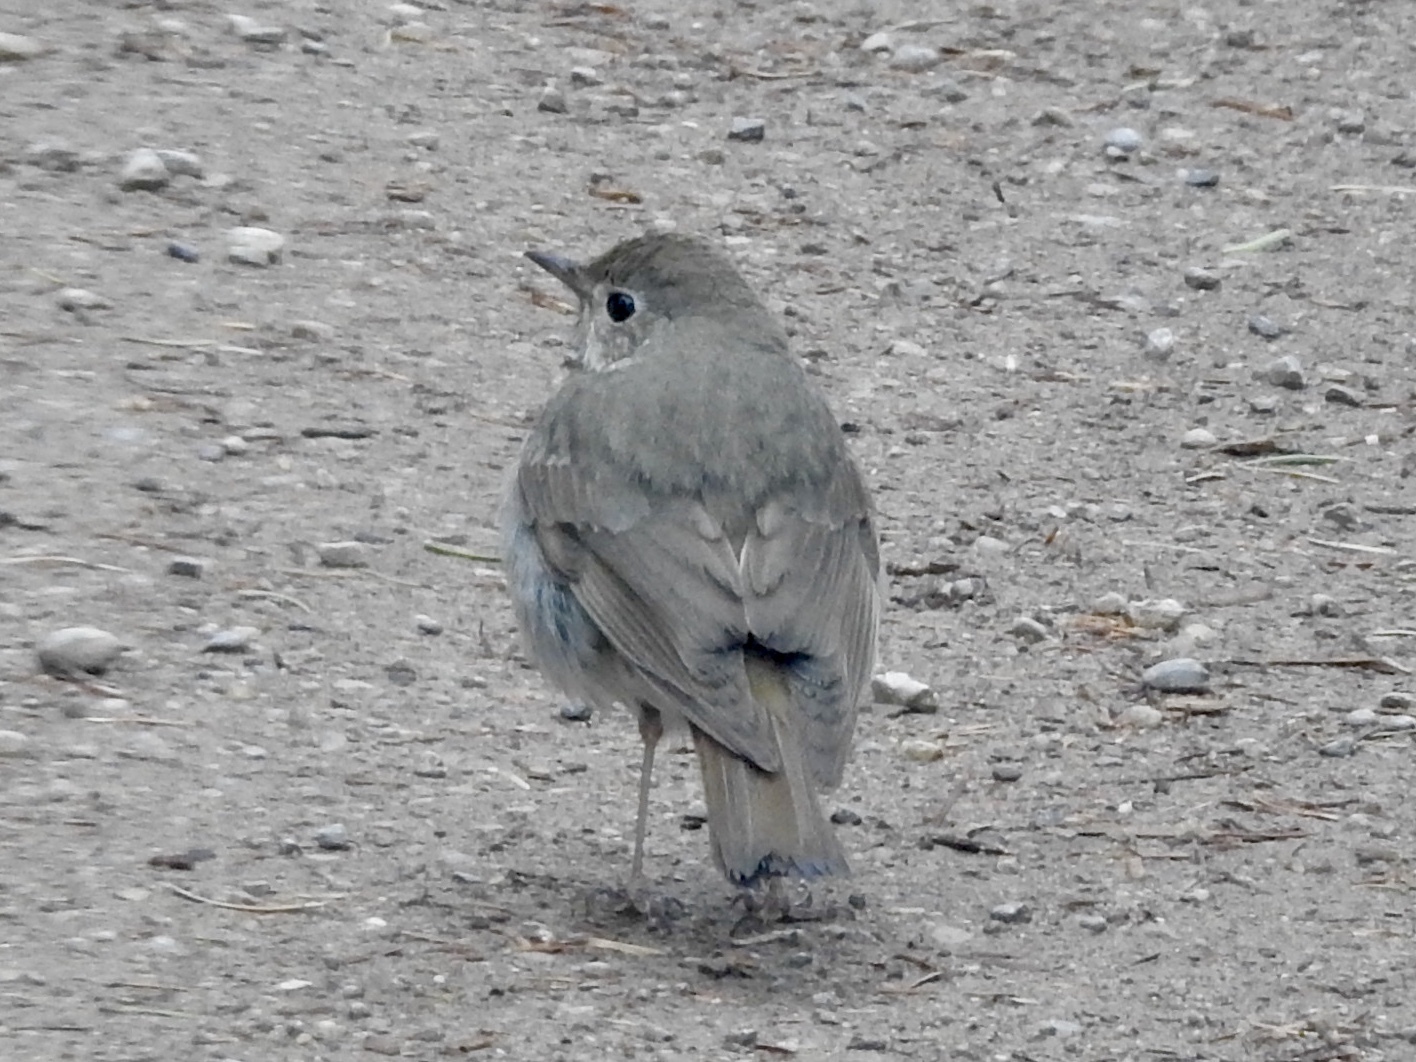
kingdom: Animalia
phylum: Chordata
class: Aves
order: Passeriformes
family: Turdidae
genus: Catharus
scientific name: Catharus guttatus
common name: Hermit thrush
